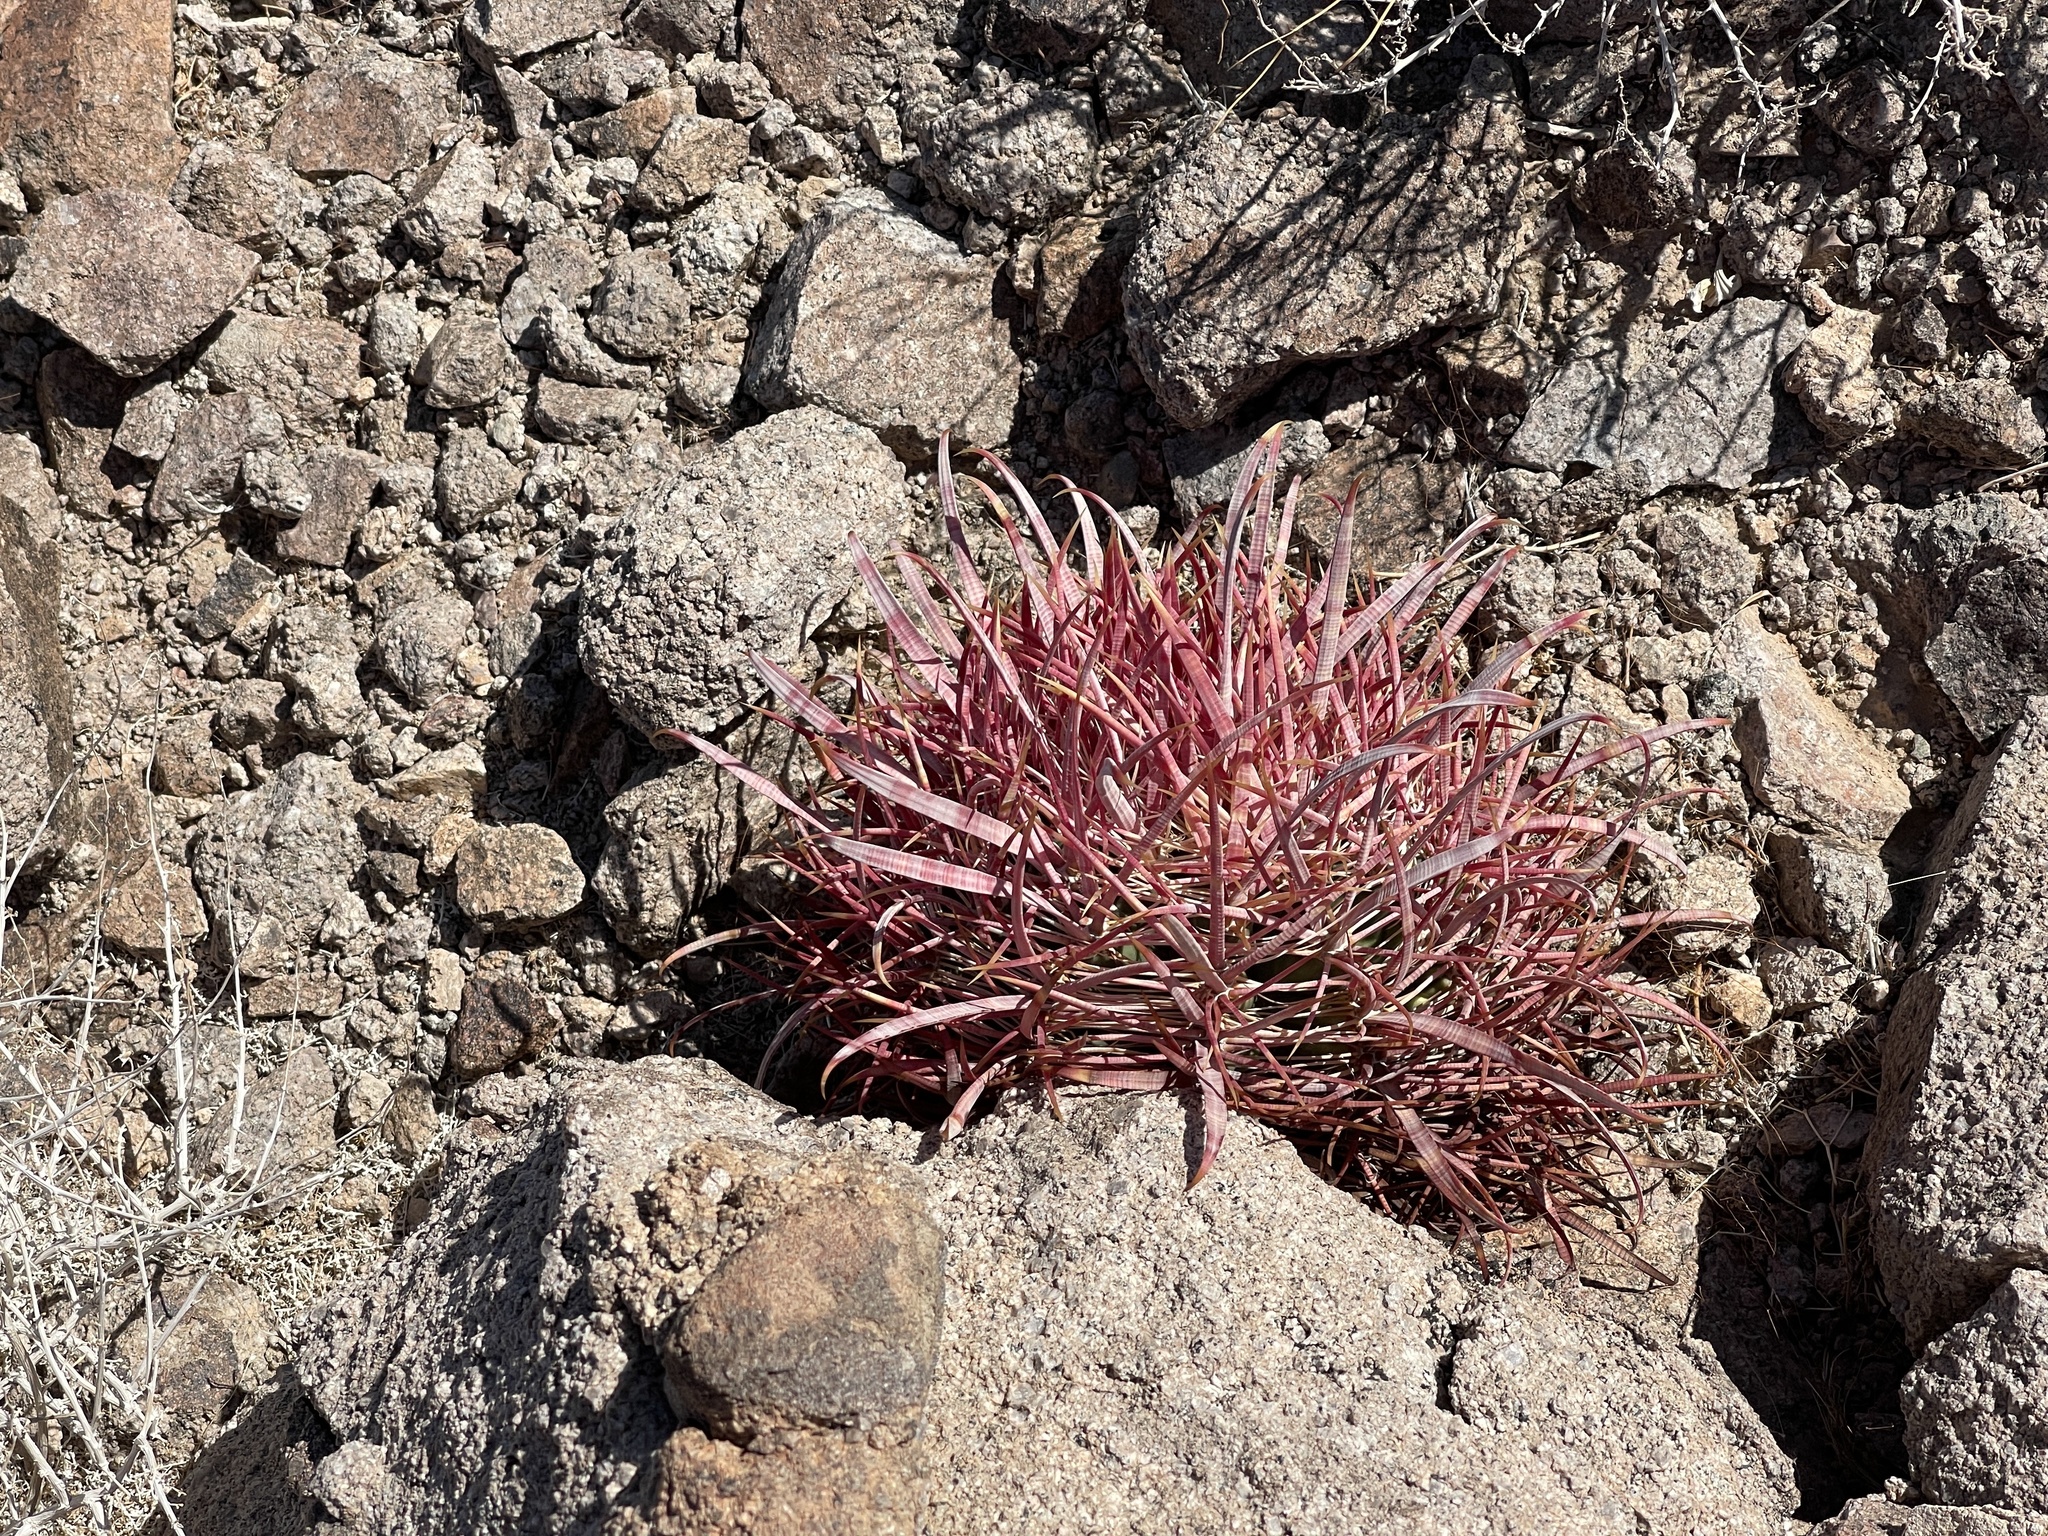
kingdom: Plantae
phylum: Tracheophyta
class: Magnoliopsida
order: Caryophyllales
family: Cactaceae
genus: Ferocactus
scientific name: Ferocactus cylindraceus
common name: California barrel cactus
